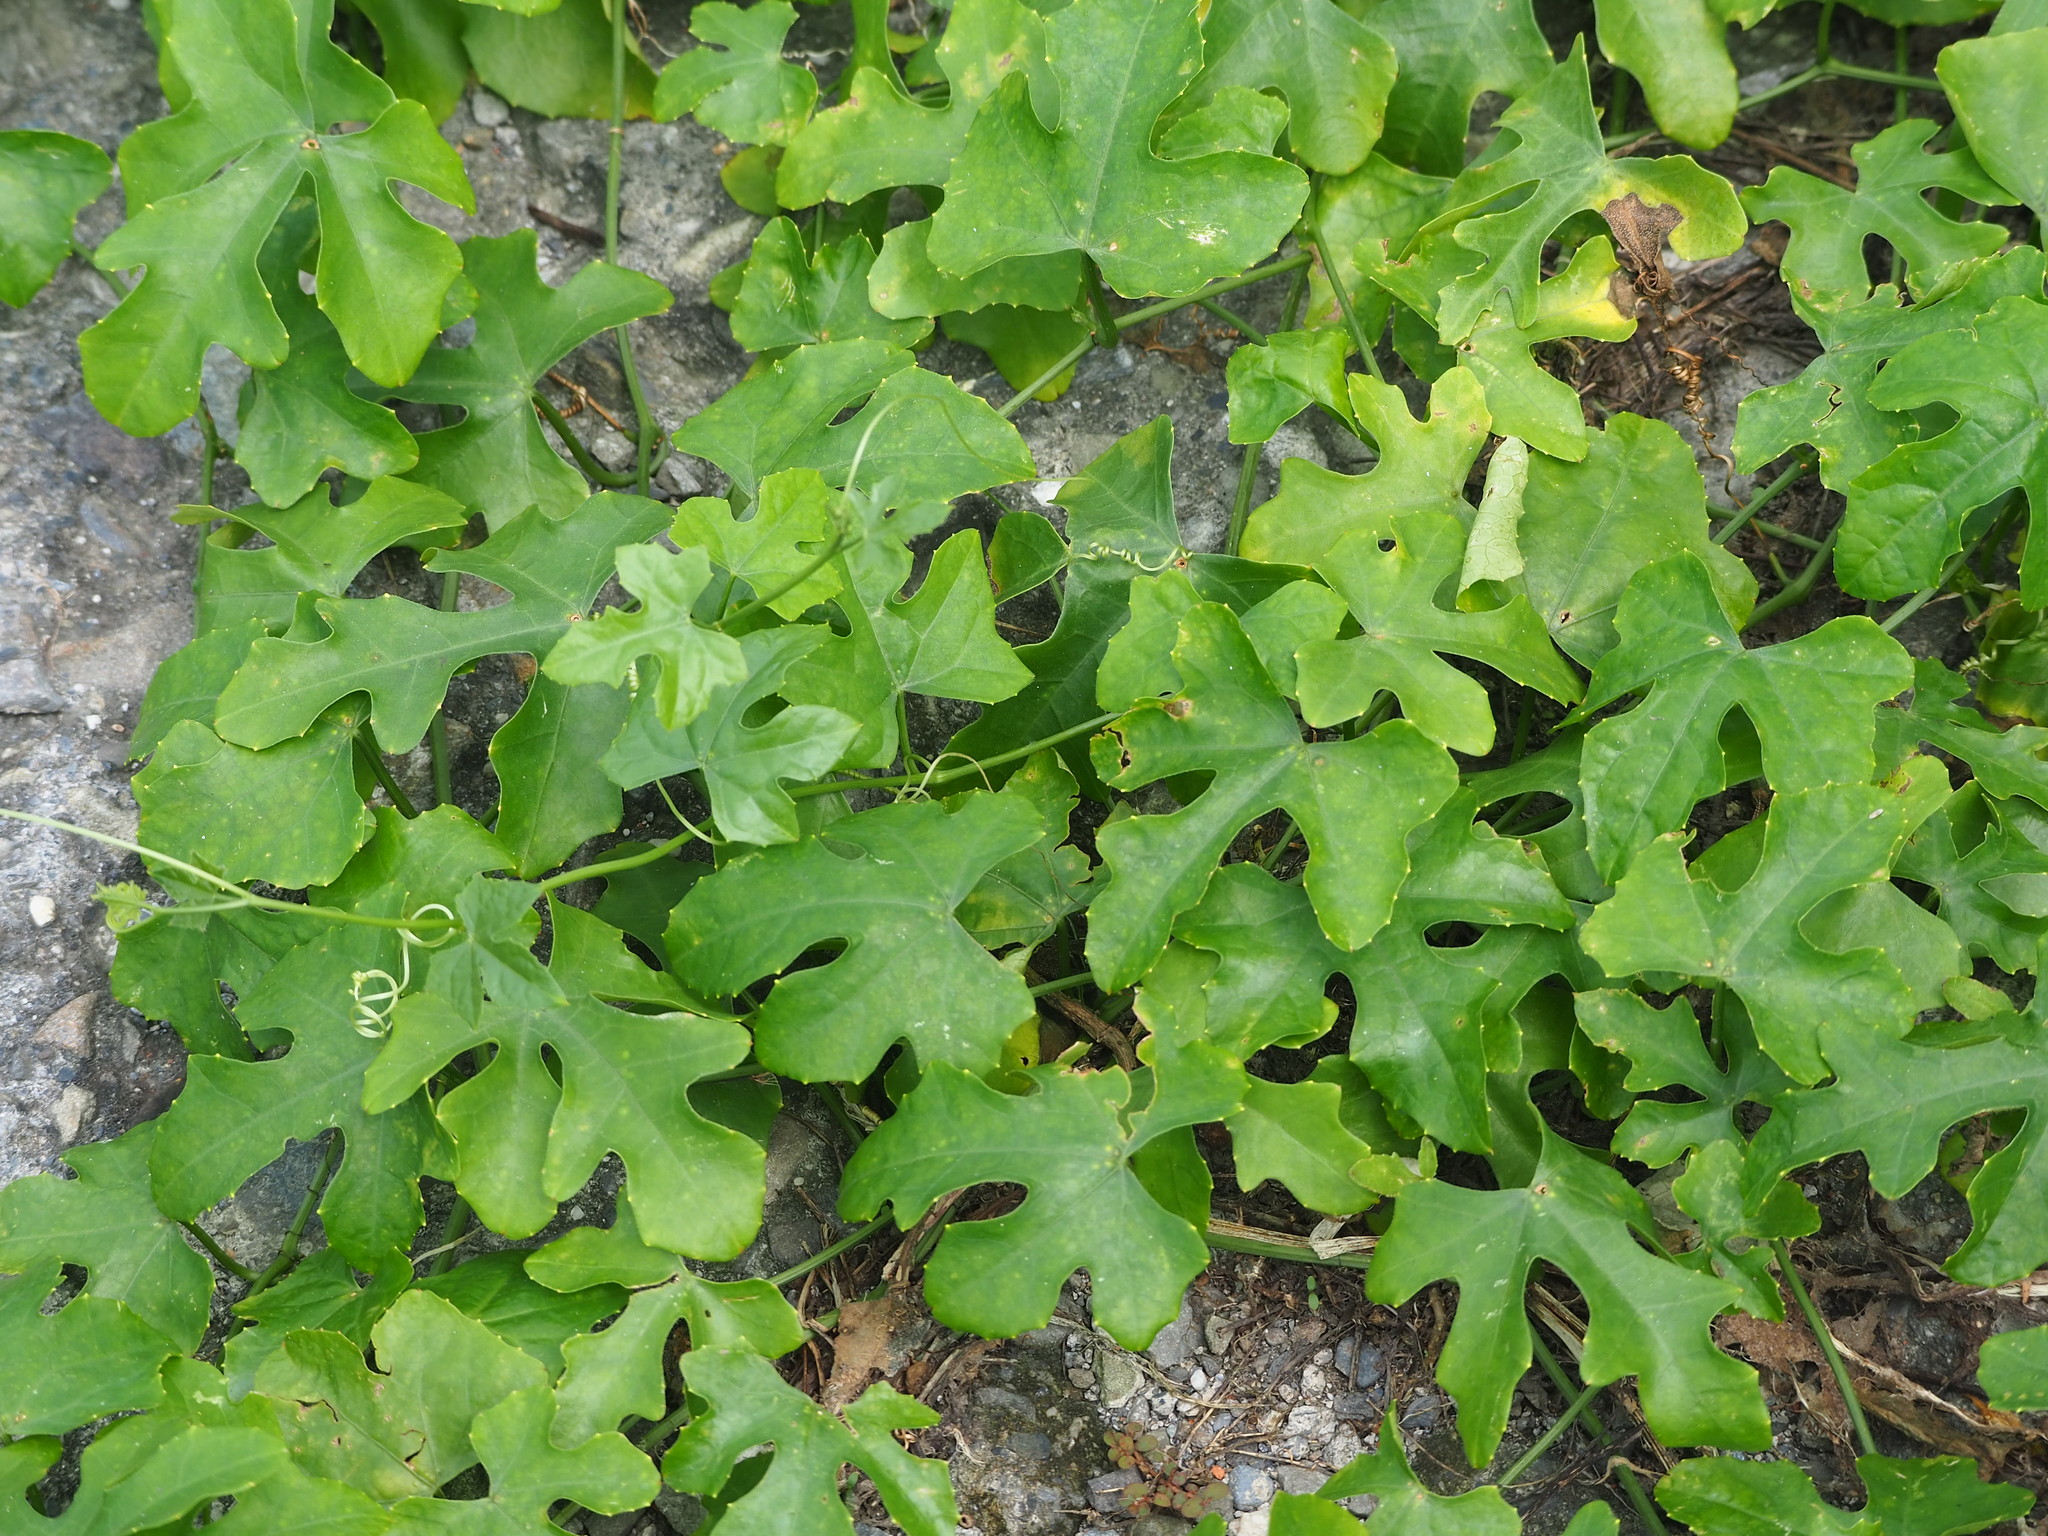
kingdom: Plantae
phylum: Tracheophyta
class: Magnoliopsida
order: Cucurbitales
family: Cucurbitaceae
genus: Coccinia
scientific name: Coccinia grandis
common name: Ivy gourd
